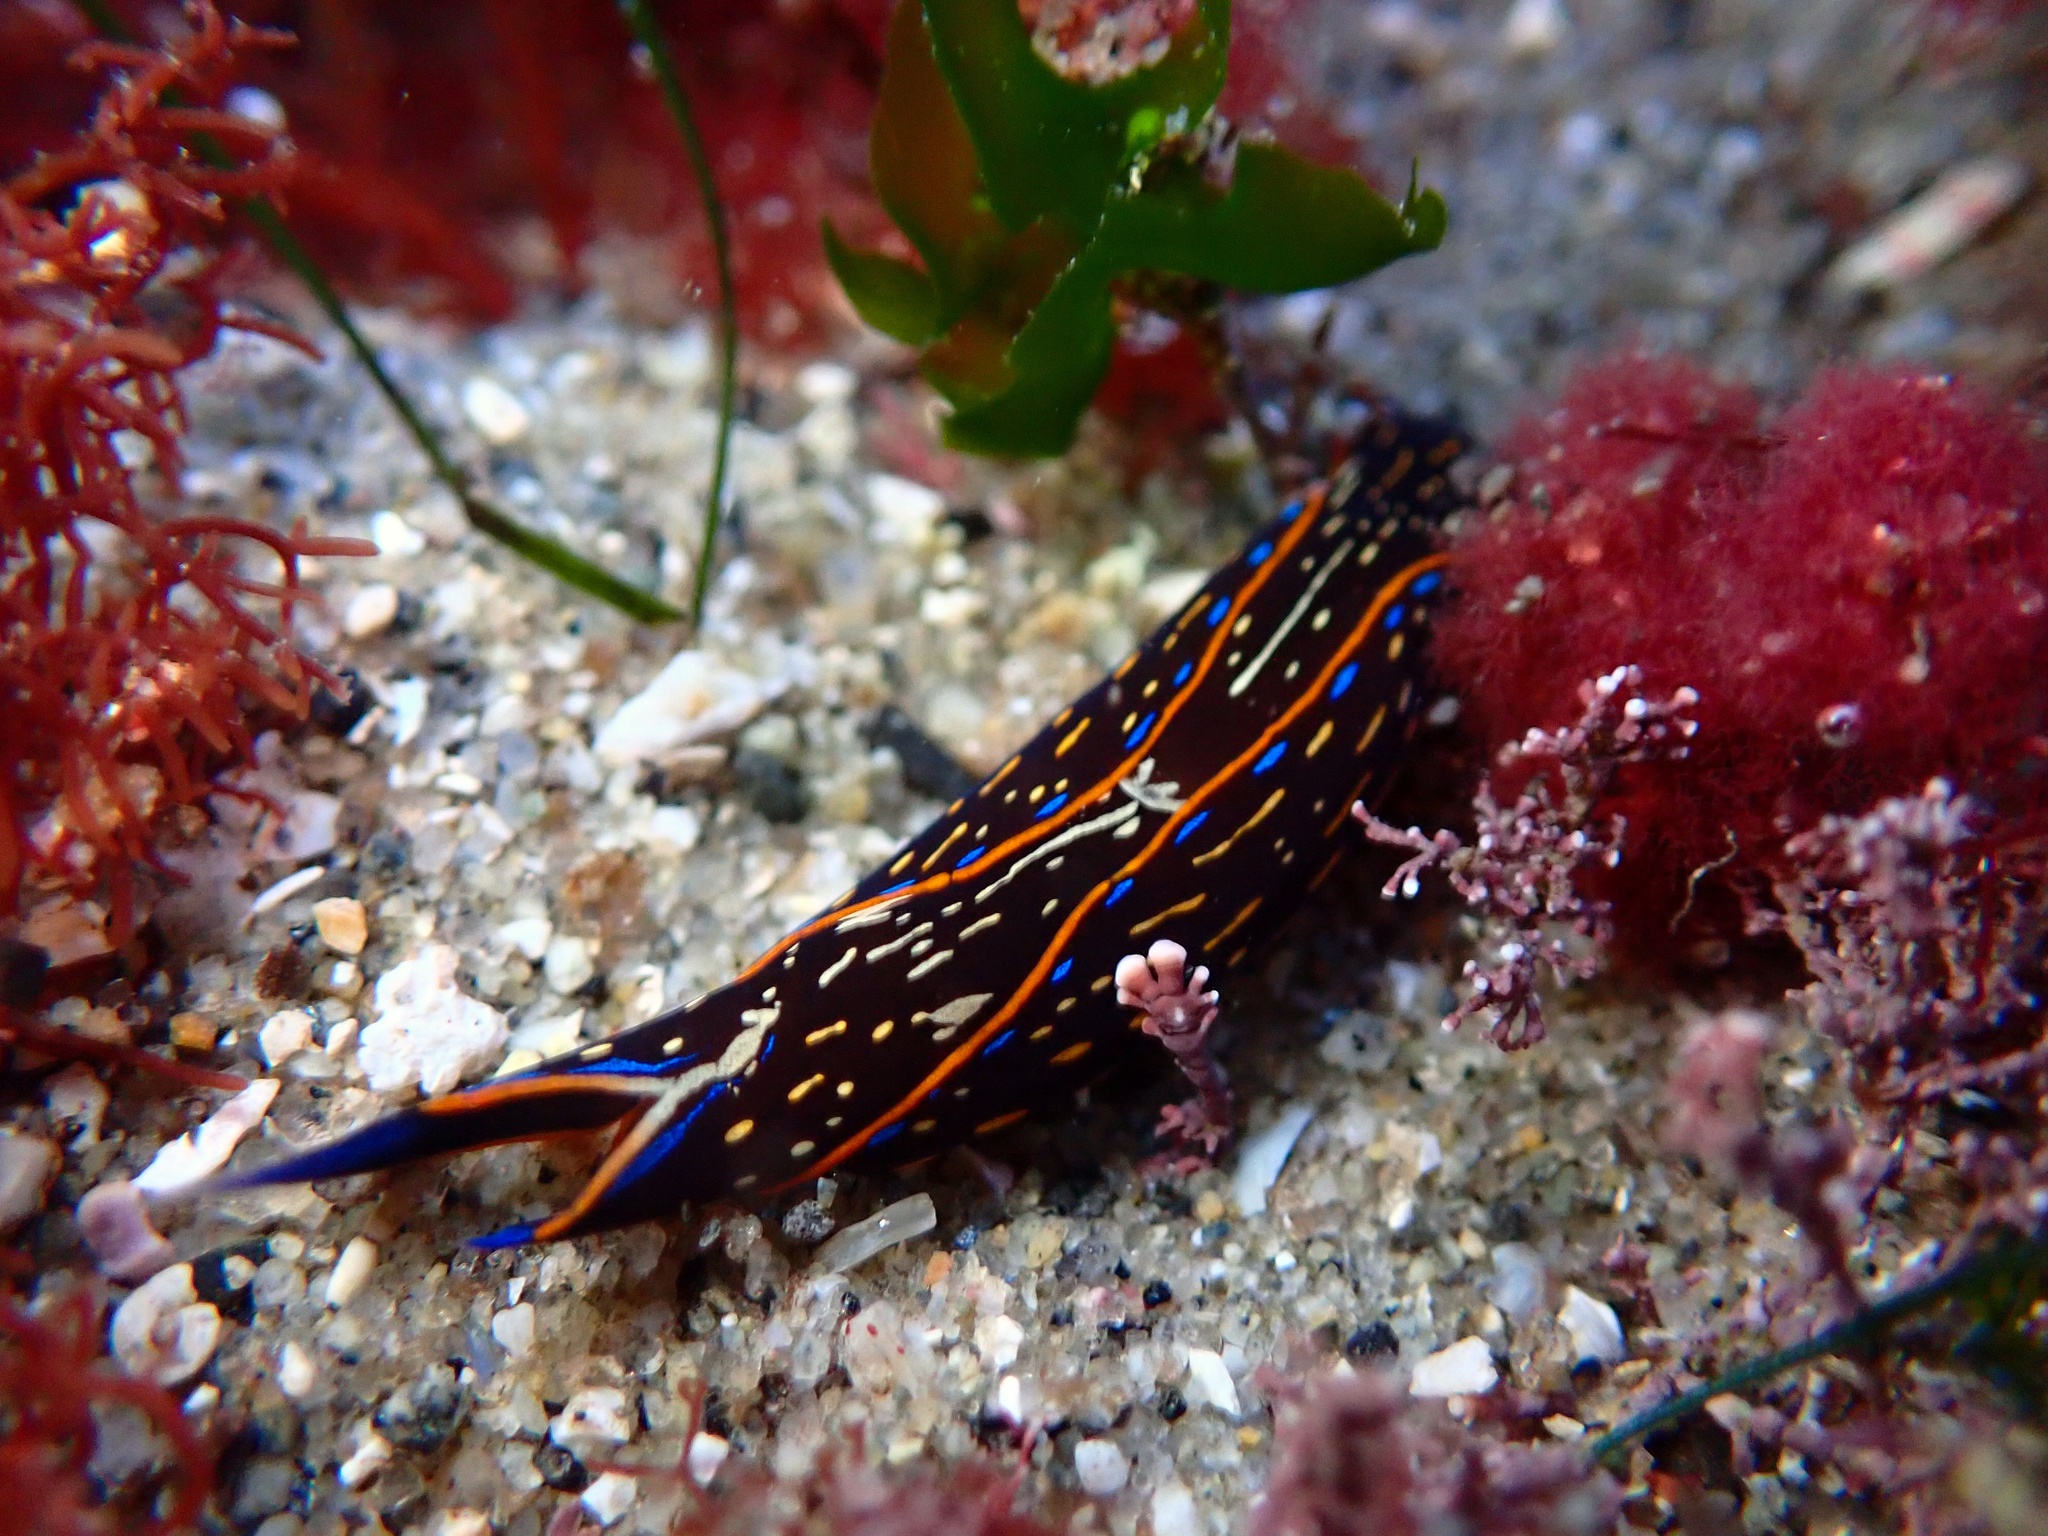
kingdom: Animalia
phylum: Mollusca
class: Gastropoda
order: Cephalaspidea
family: Aglajidae
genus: Navanax
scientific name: Navanax inermis
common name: California aglaja
